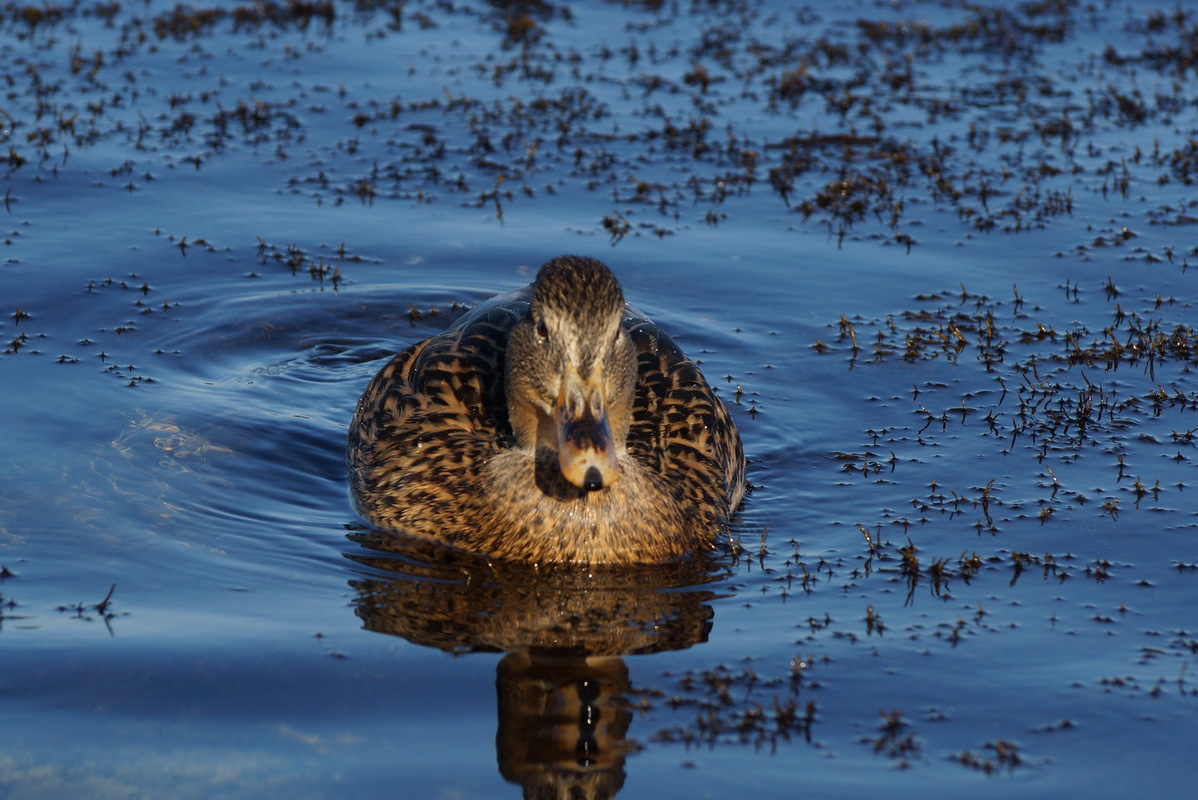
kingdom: Animalia
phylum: Chordata
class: Aves
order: Anseriformes
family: Anatidae
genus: Anas
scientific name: Anas platyrhynchos
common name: Mallard
